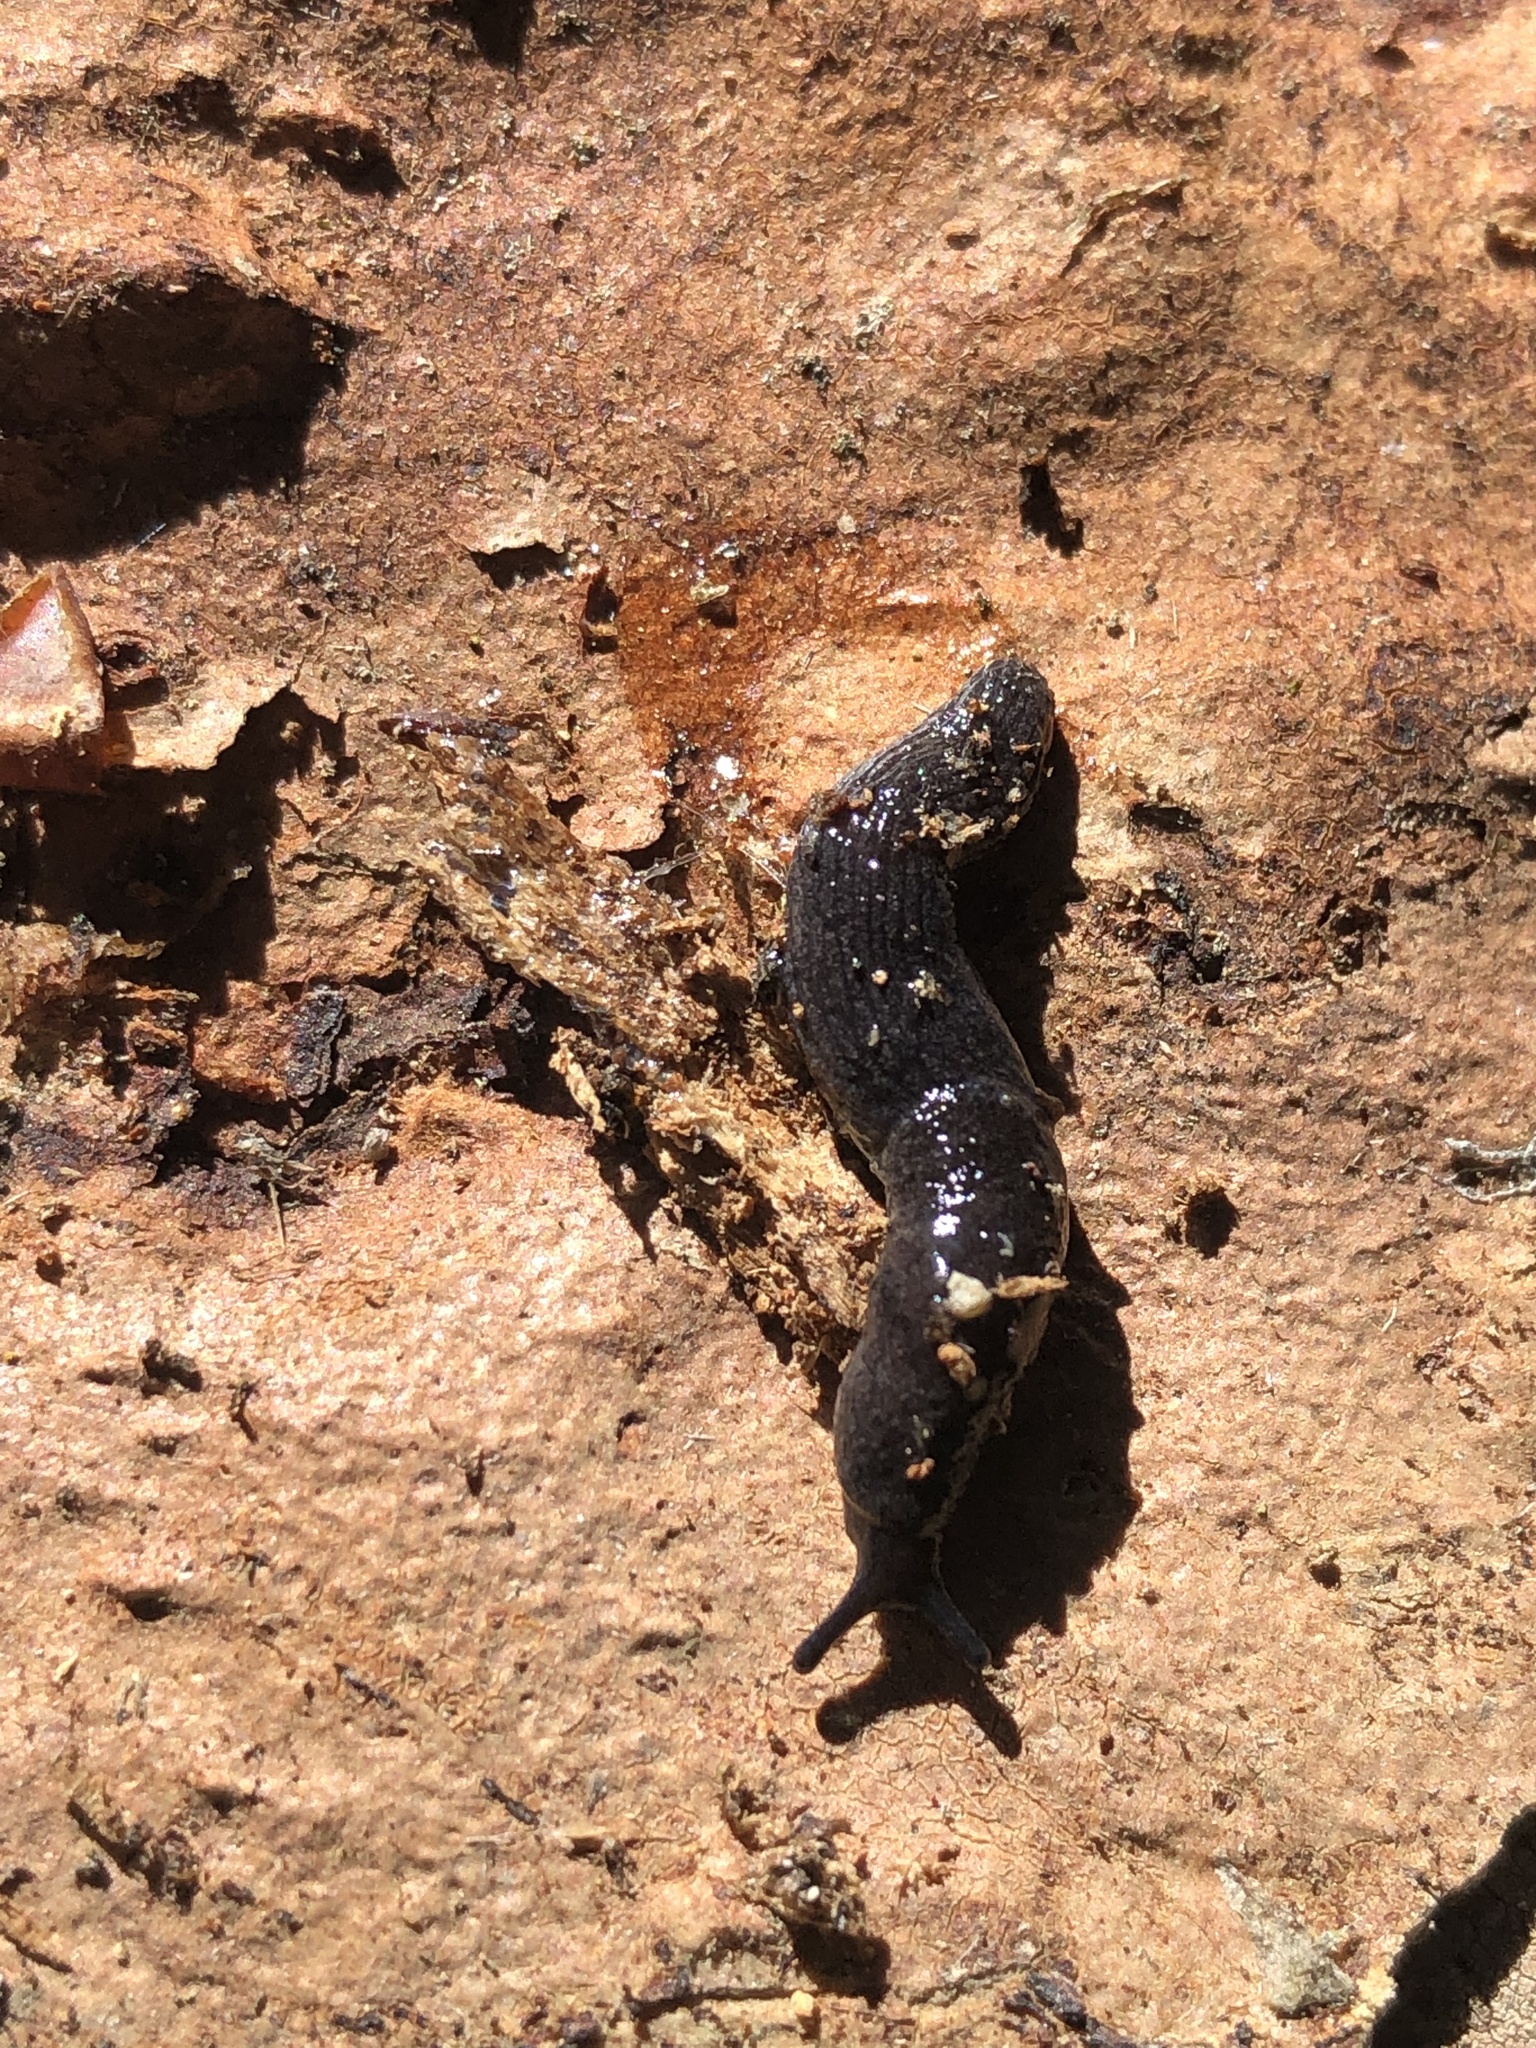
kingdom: Animalia
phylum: Mollusca
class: Gastropoda
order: Stylommatophora
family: Ariolimacidae
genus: Prophysaon
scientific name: Prophysaon coeruleum
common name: Blue-gray taildropper
